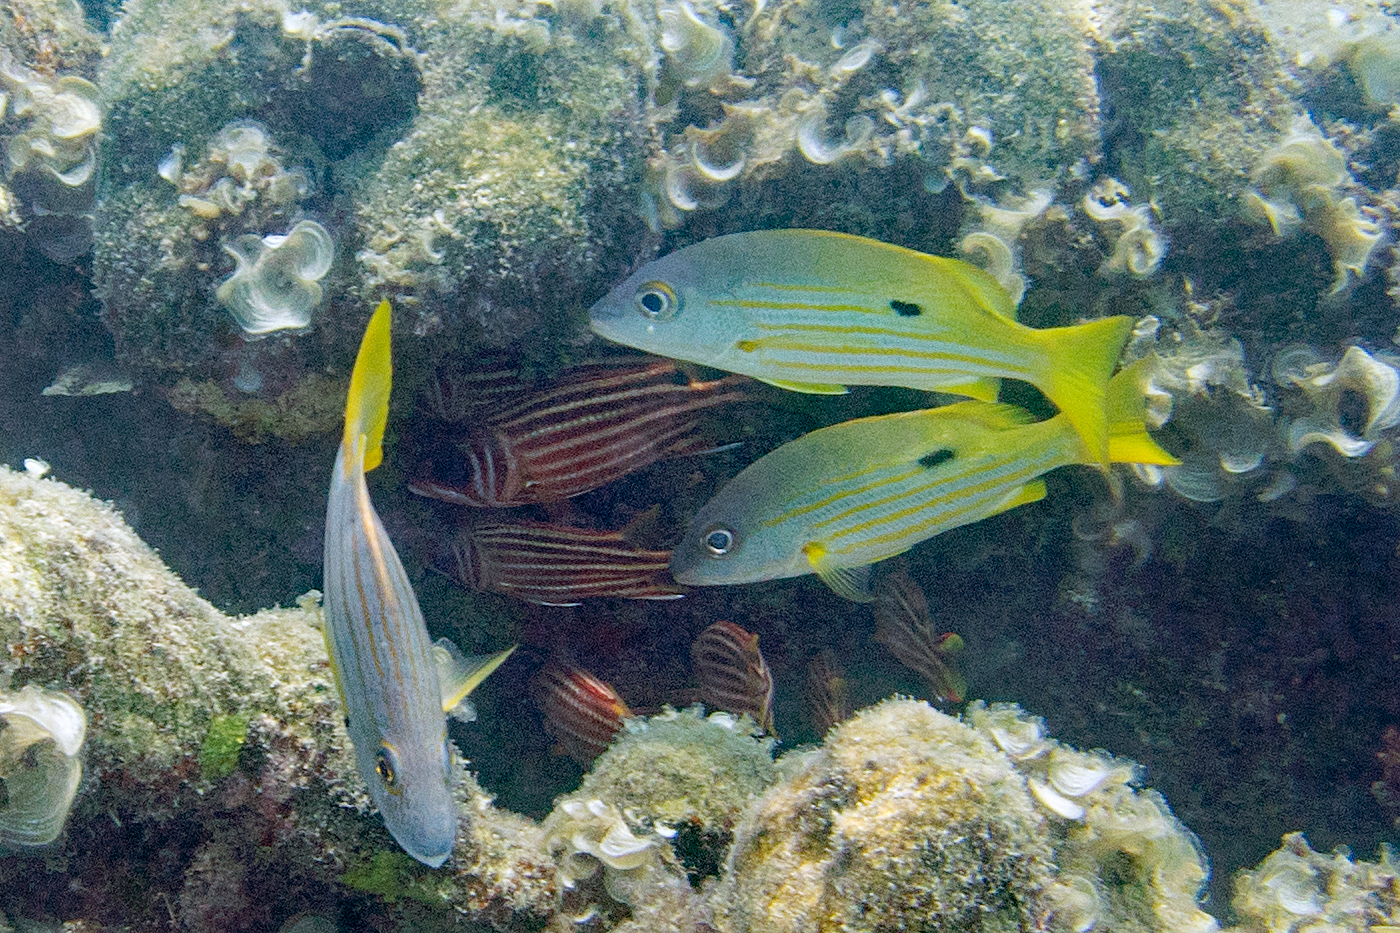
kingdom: Animalia
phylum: Chordata
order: Perciformes
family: Lutjanidae
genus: Lutjanus
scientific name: Lutjanus fulviflamma
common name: Blackspot snapper
